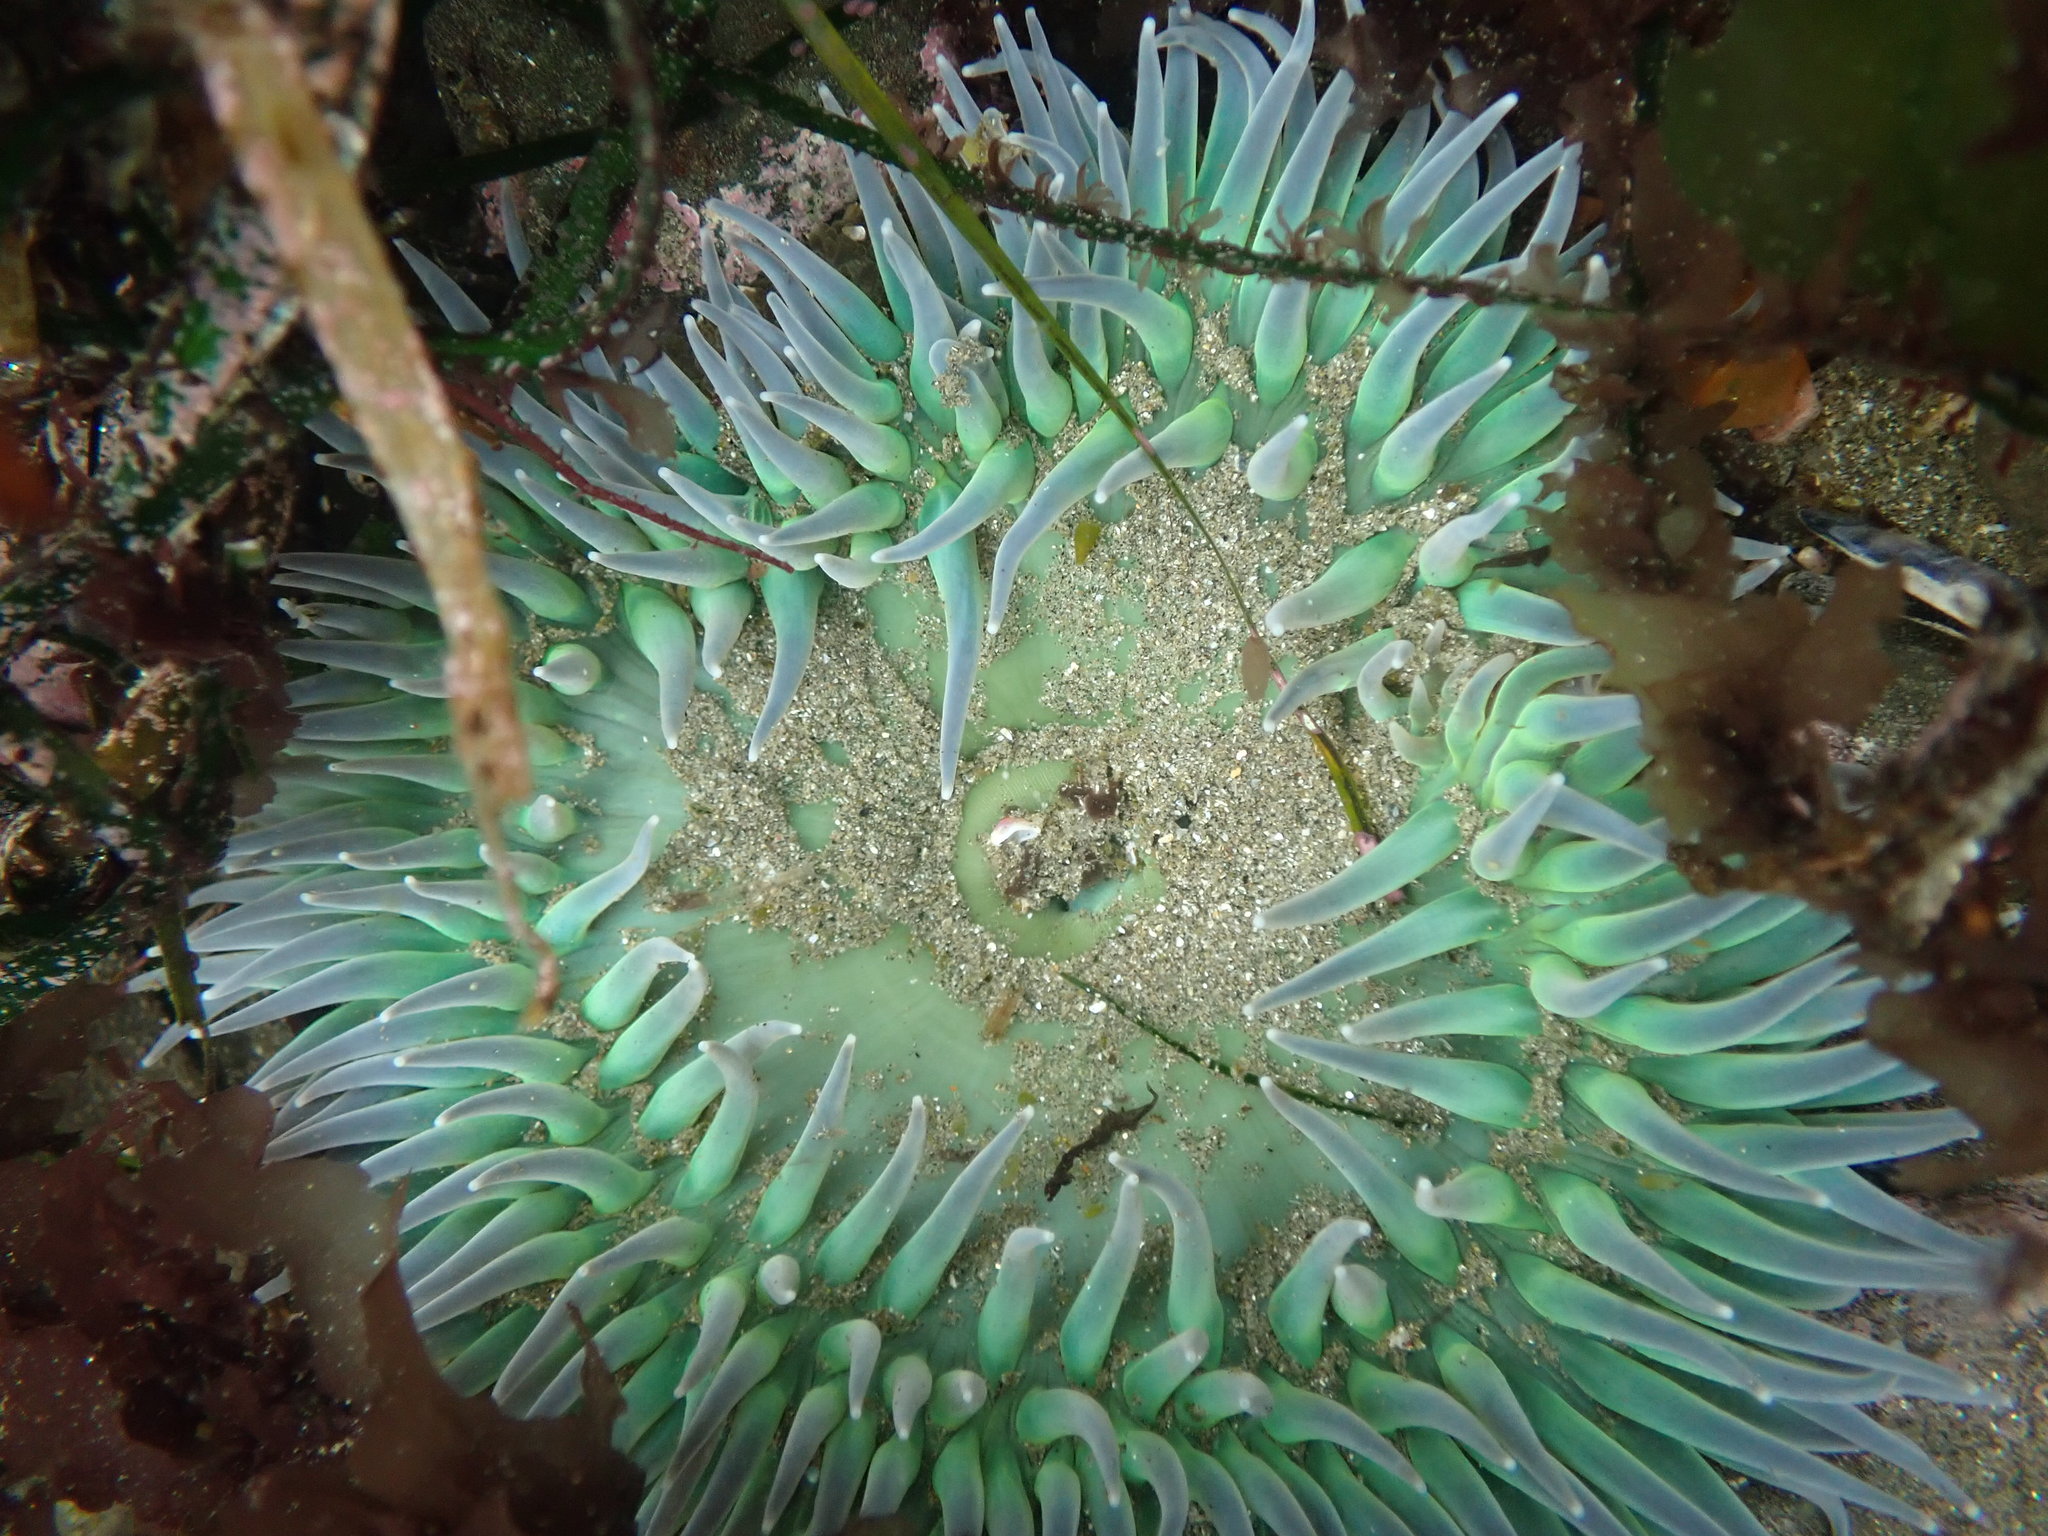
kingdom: Animalia
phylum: Cnidaria
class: Anthozoa
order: Actiniaria
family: Actiniidae
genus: Anthopleura
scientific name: Anthopleura xanthogrammica
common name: Giant green anemone
